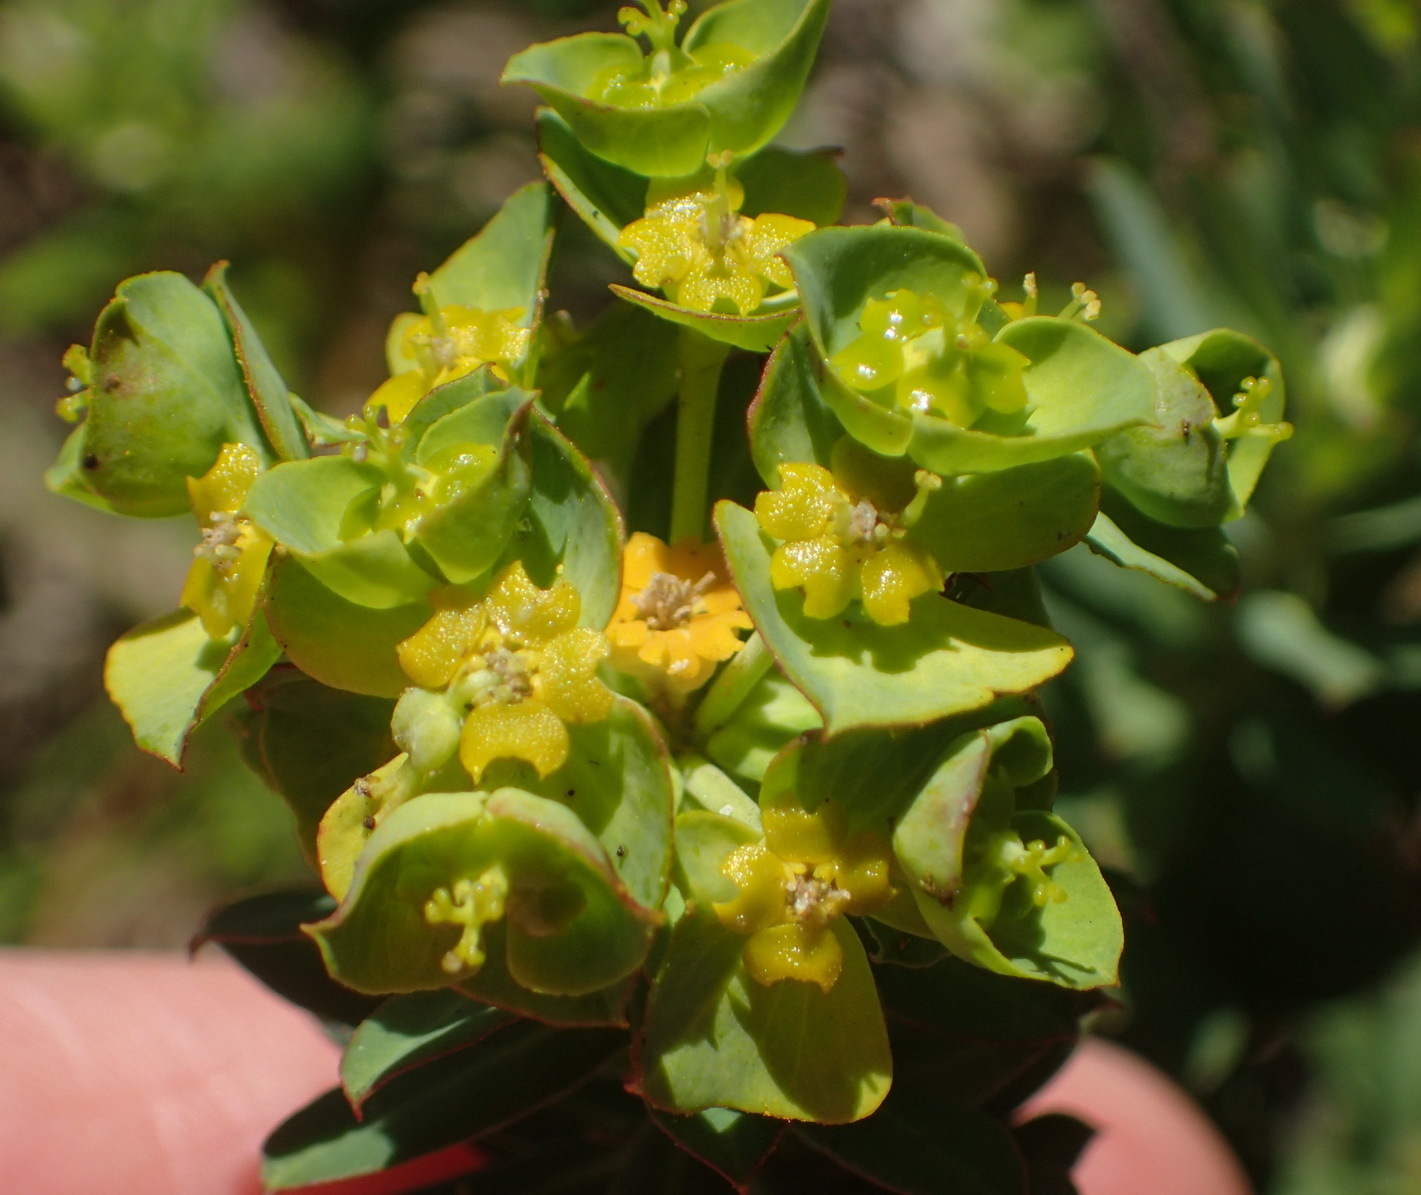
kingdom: Plantae
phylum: Tracheophyta
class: Magnoliopsida
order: Malpighiales
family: Euphorbiaceae
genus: Euphorbia
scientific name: Euphorbia genistoides
